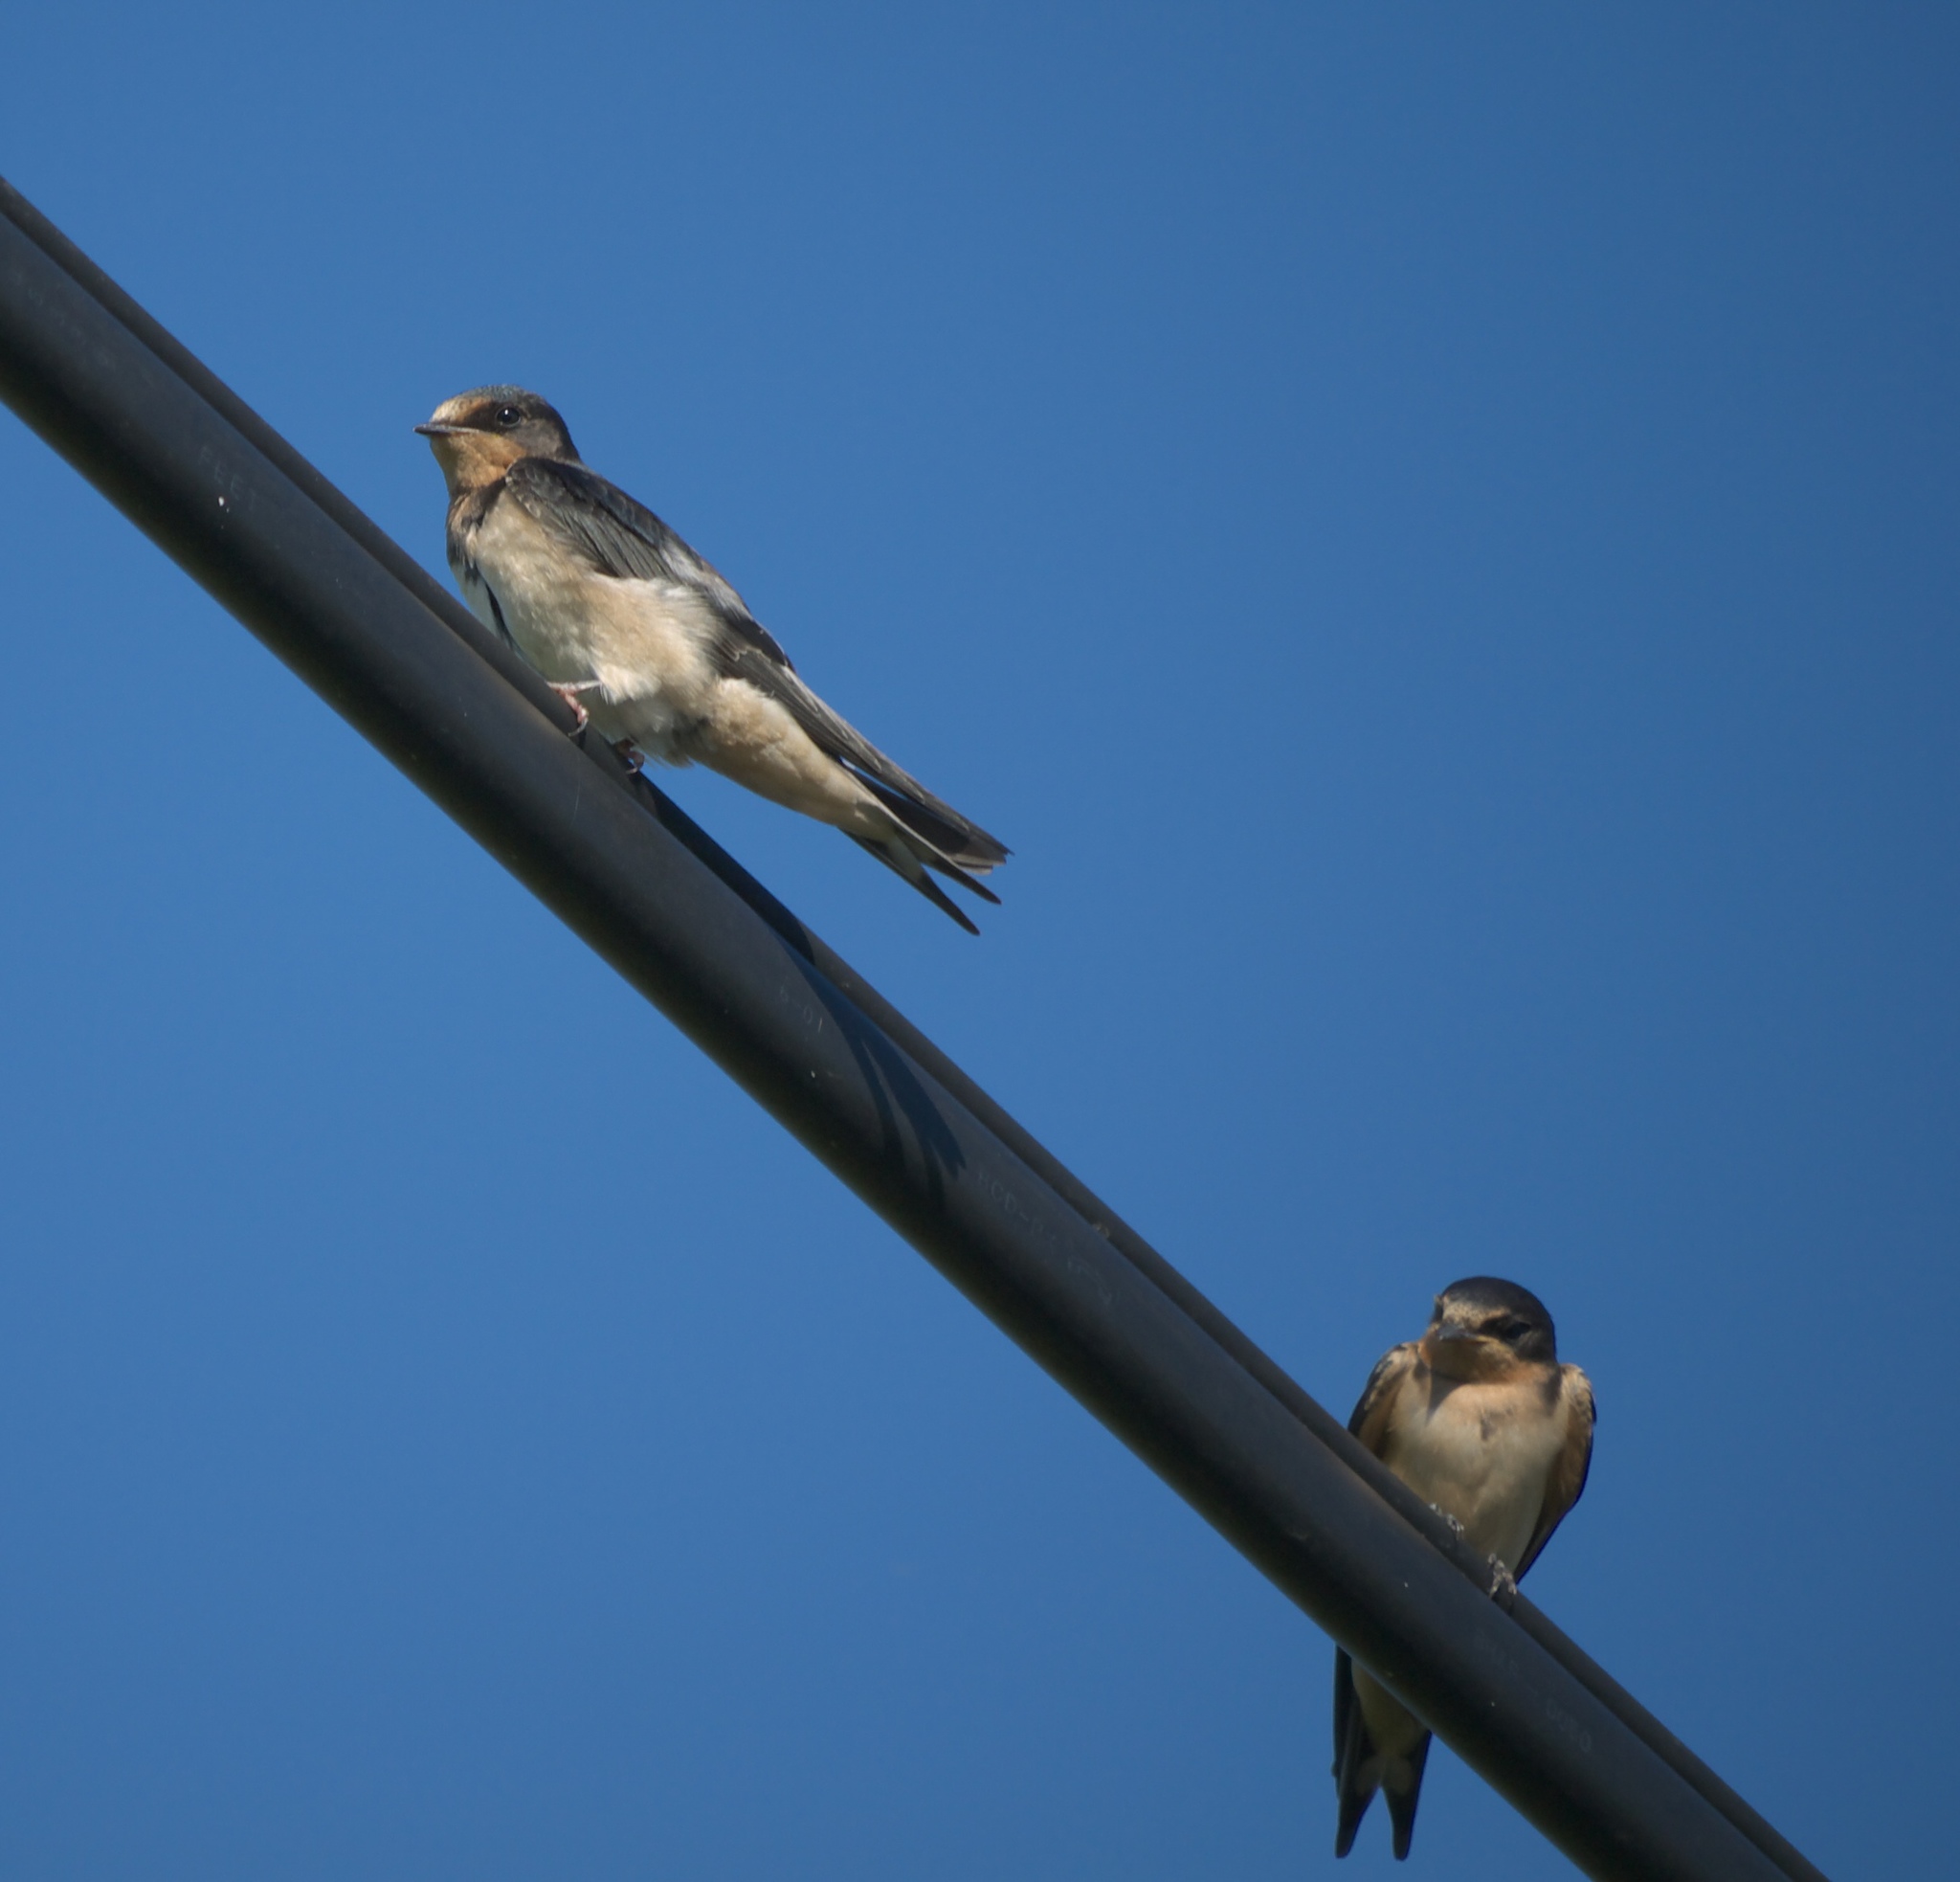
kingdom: Animalia
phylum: Chordata
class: Aves
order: Passeriformes
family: Hirundinidae
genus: Hirundo
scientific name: Hirundo rustica
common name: Barn swallow
